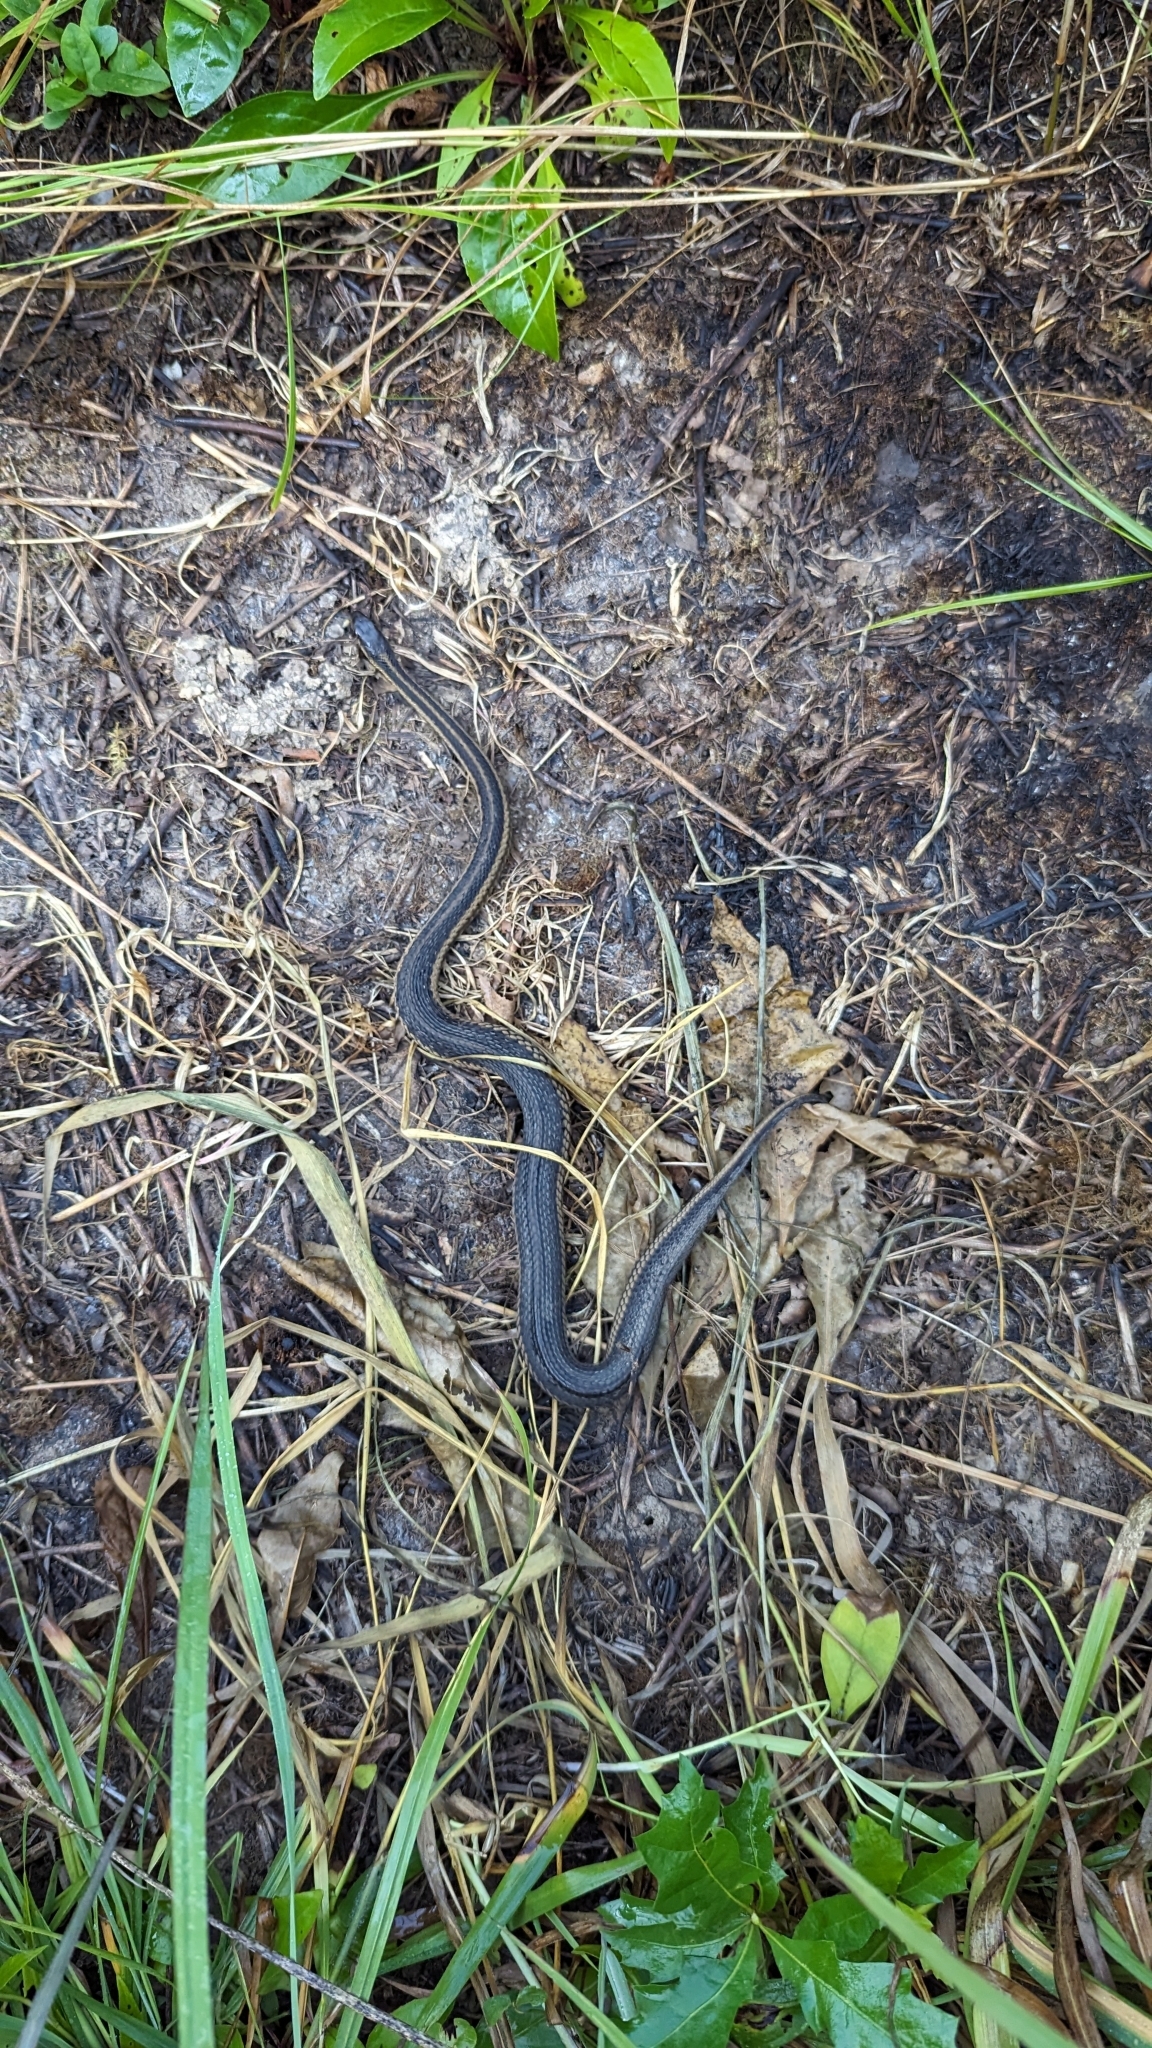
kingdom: Animalia
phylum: Chordata
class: Squamata
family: Colubridae
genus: Thamnophis
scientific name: Thamnophis sirtalis
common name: Common garter snake
